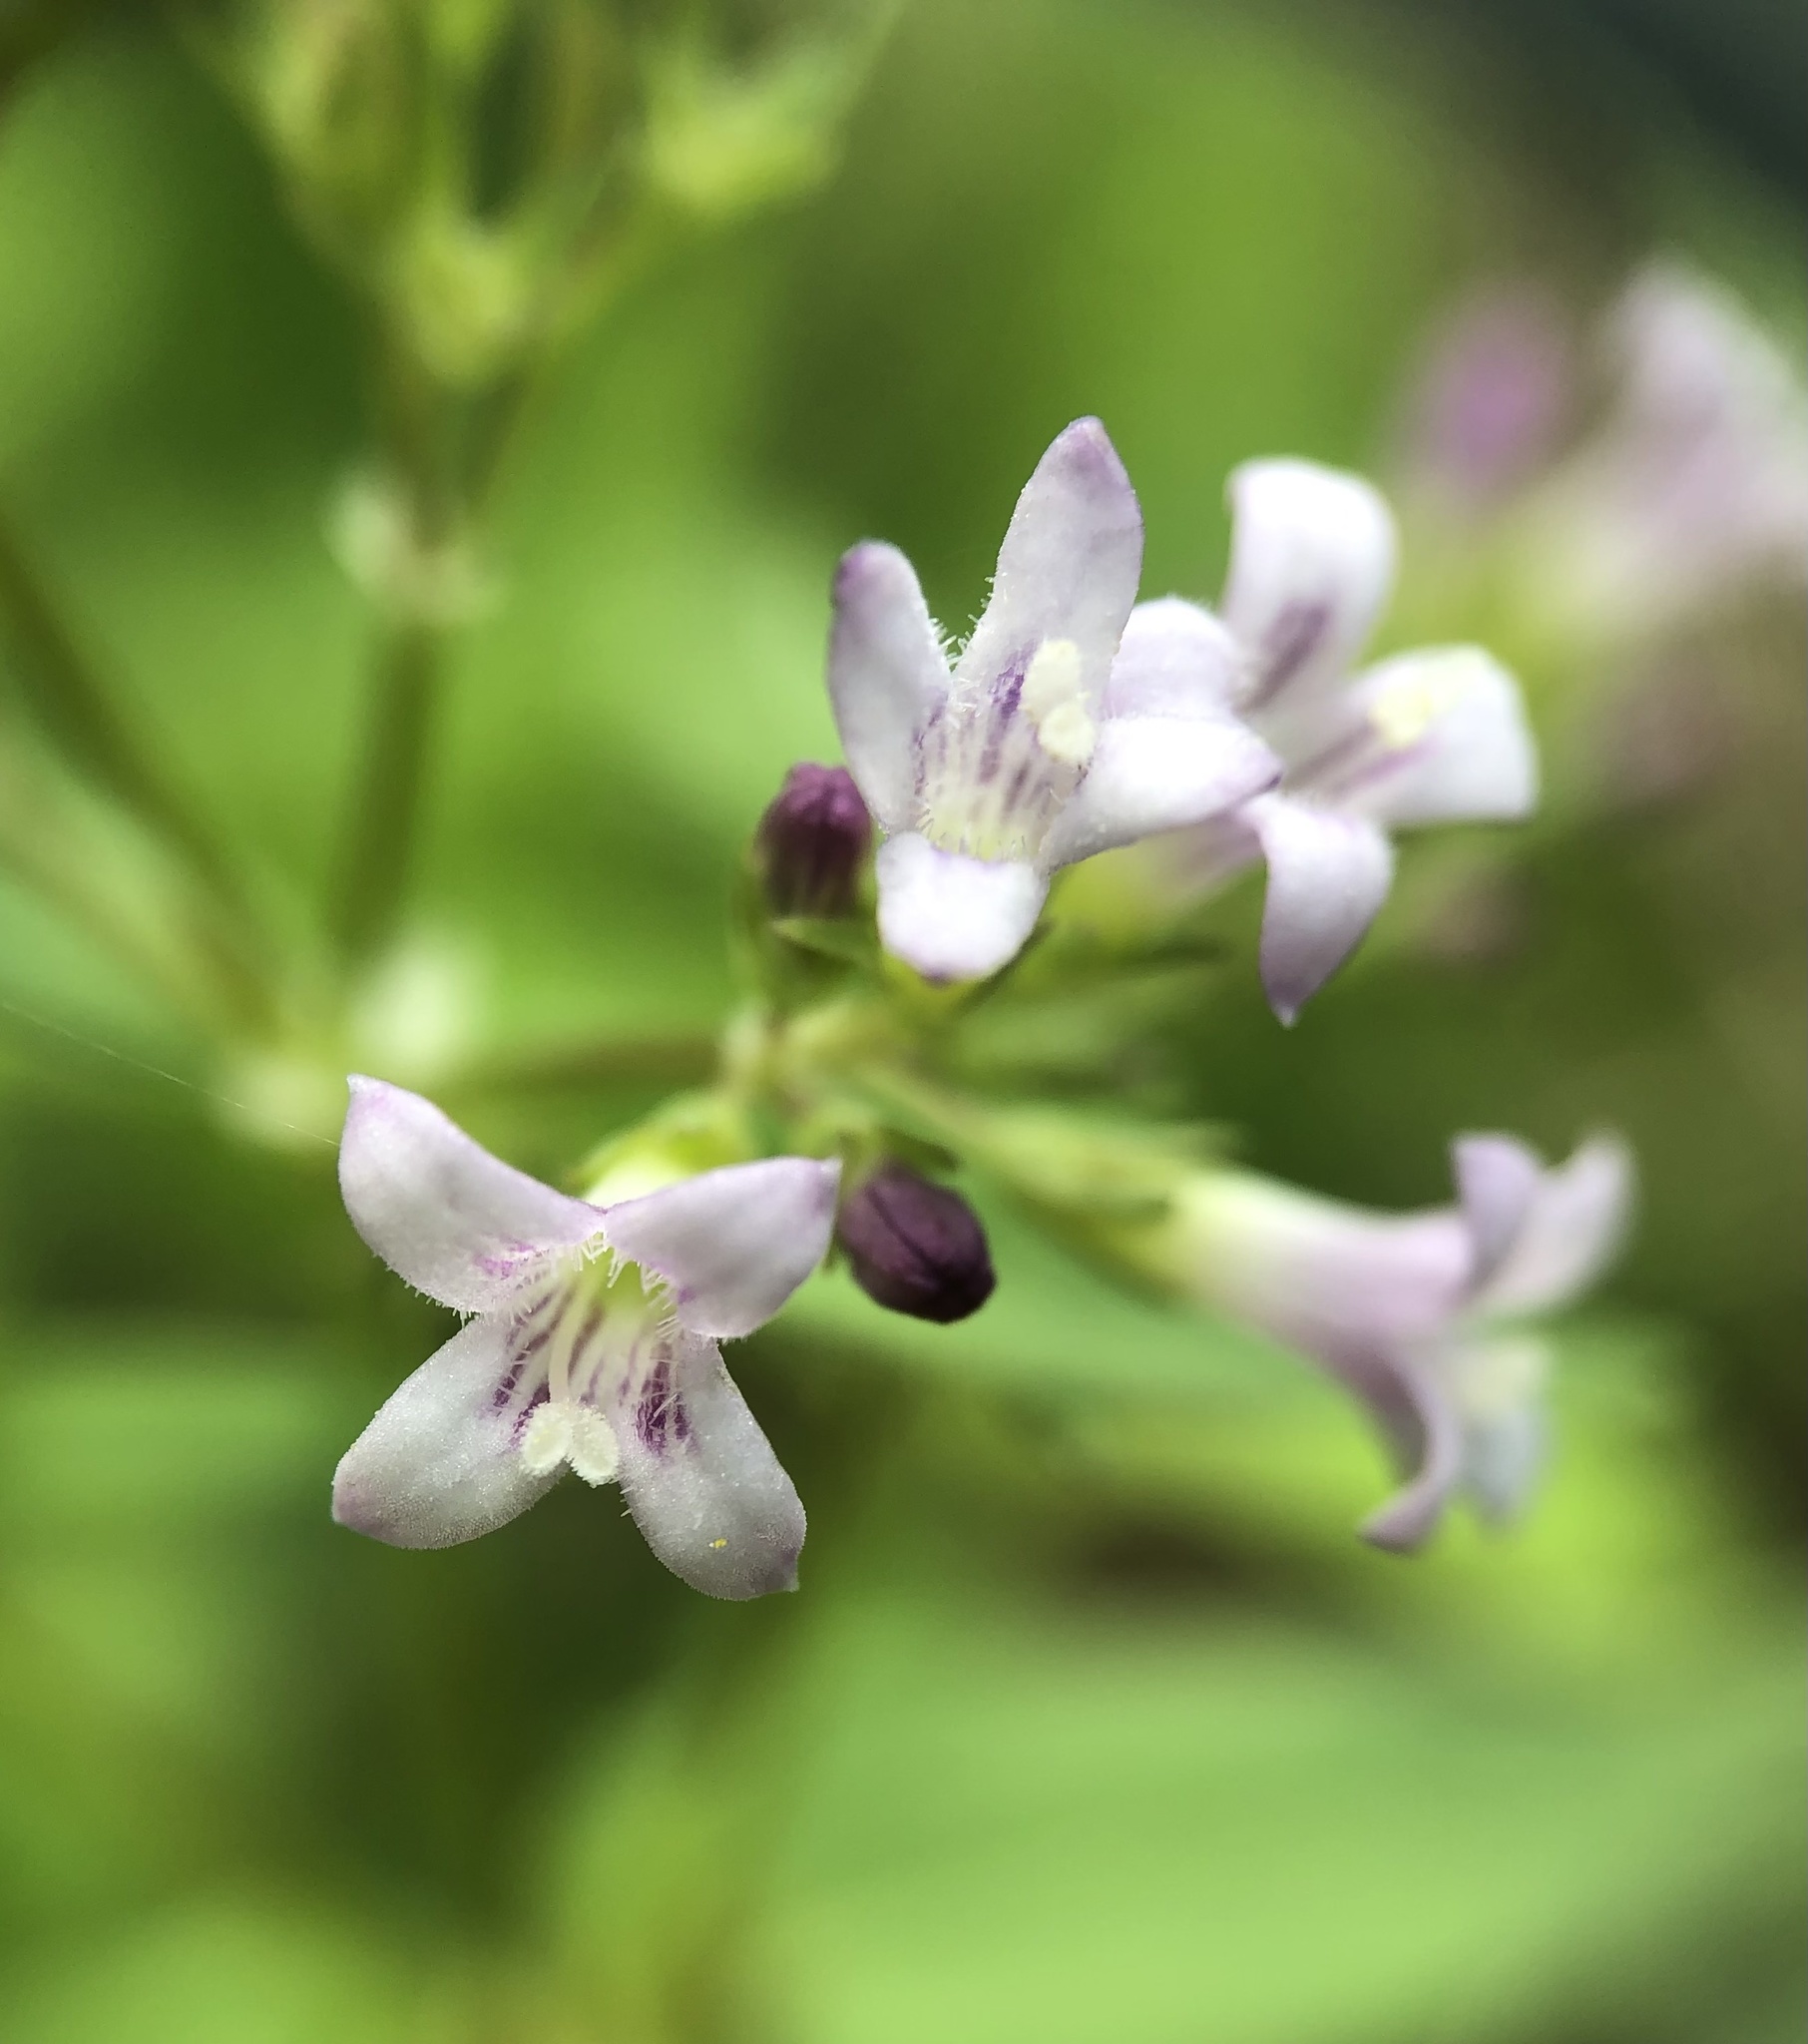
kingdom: Plantae
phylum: Tracheophyta
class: Magnoliopsida
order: Gentianales
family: Rubiaceae
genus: Houstonia
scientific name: Houstonia purpurea
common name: Summer bluet
